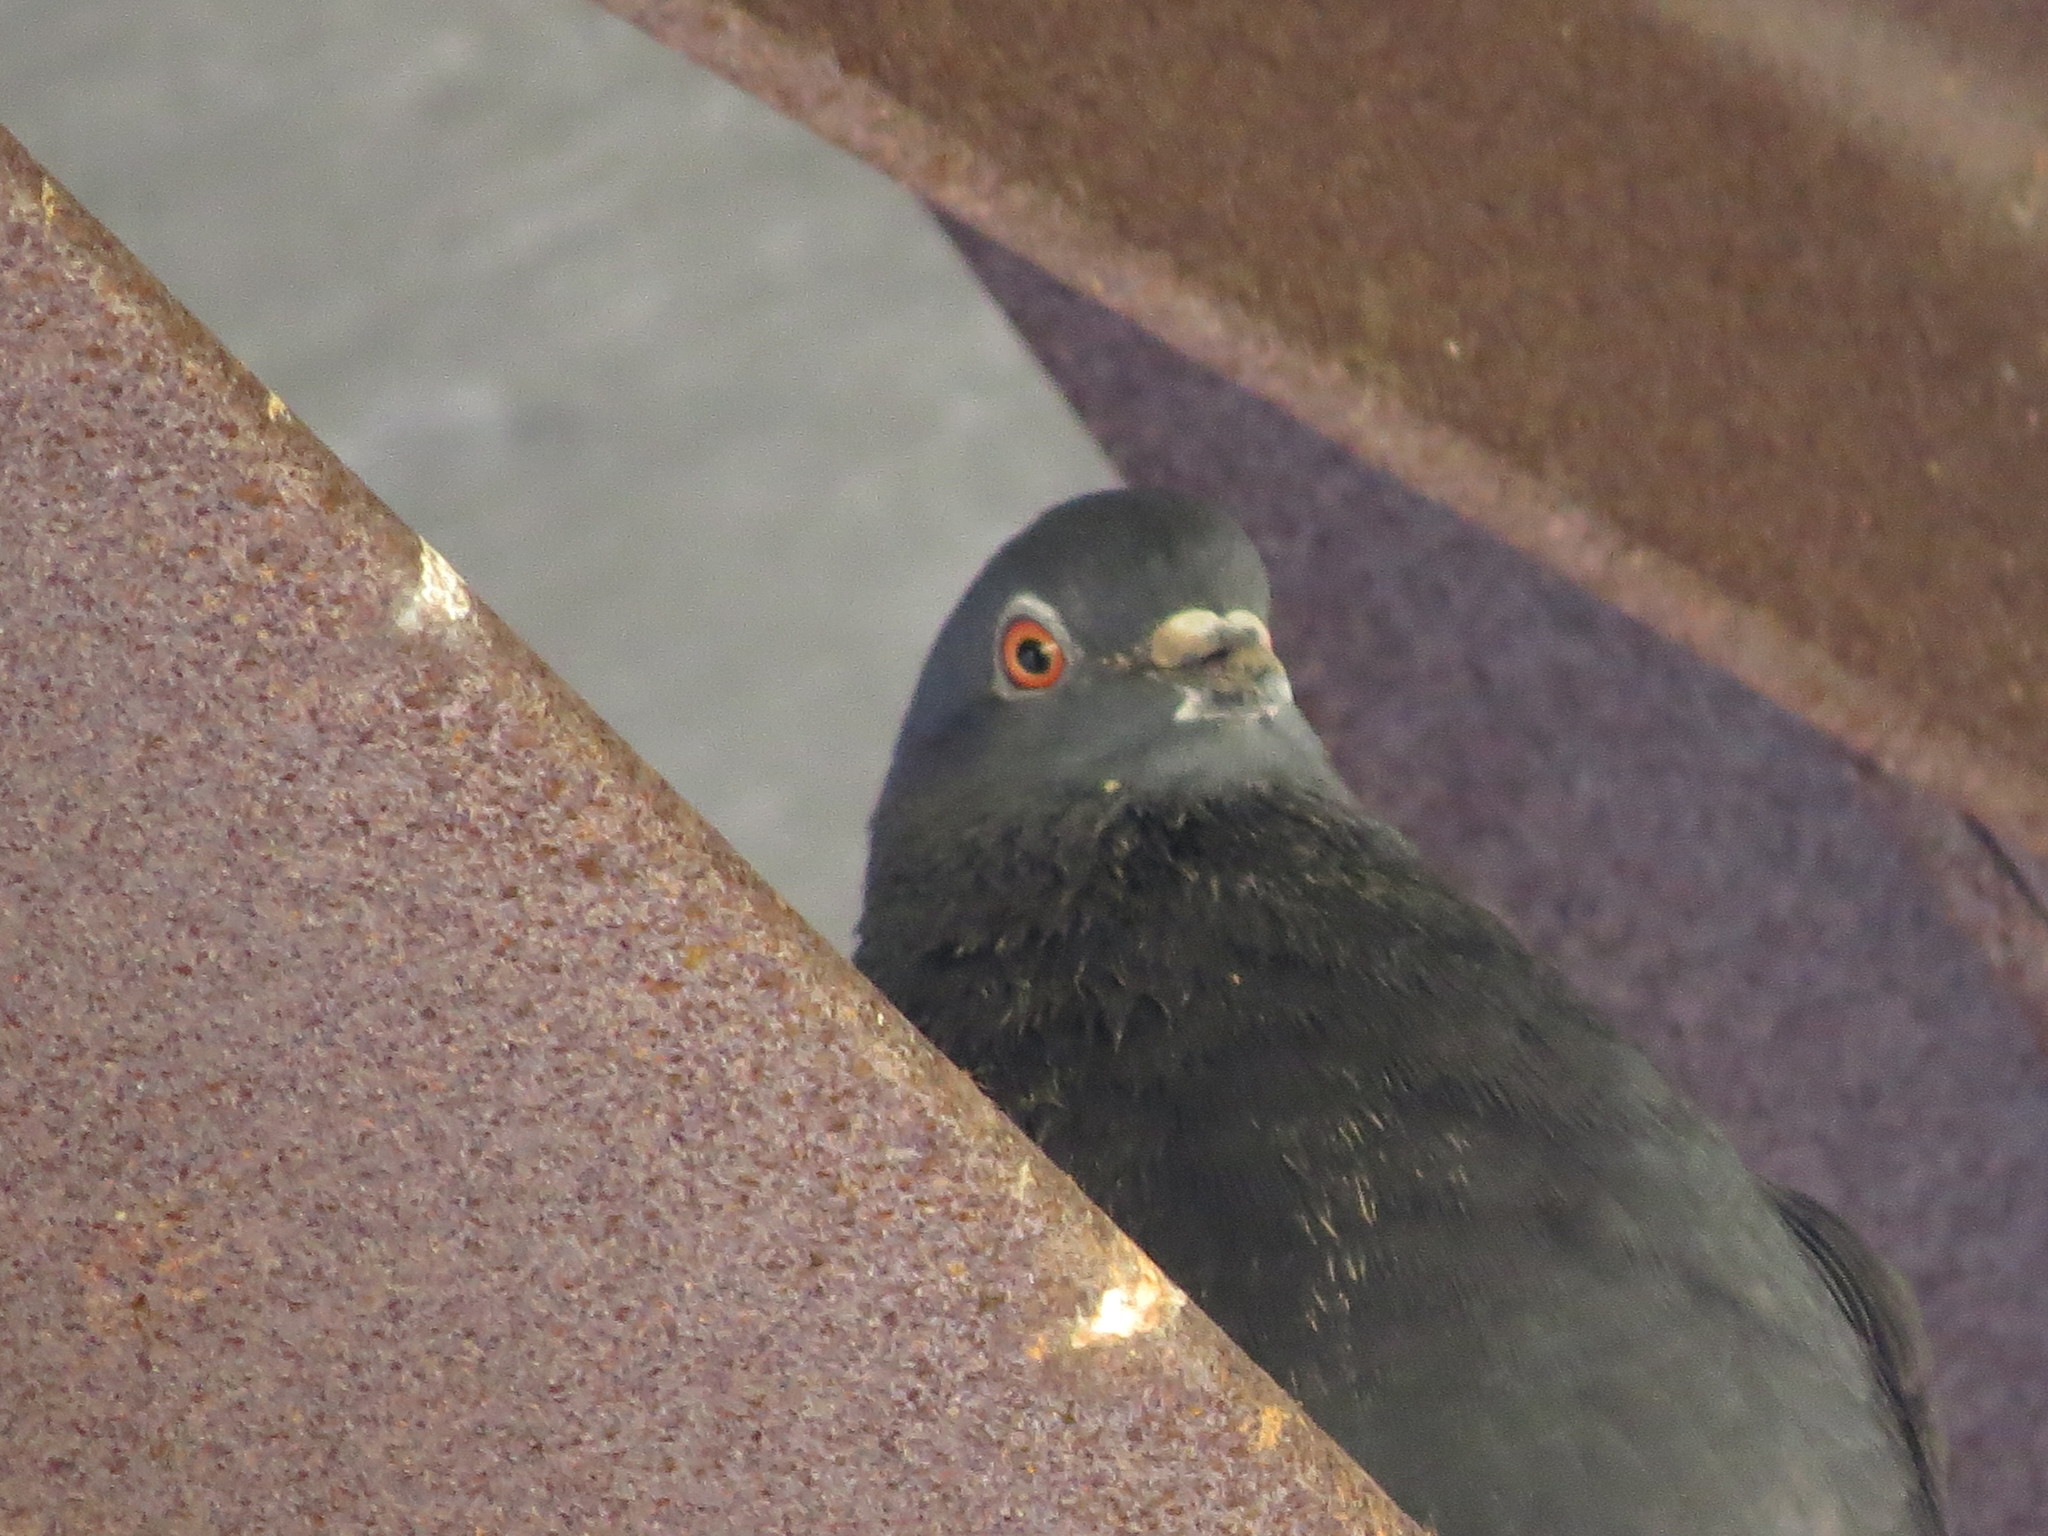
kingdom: Animalia
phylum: Chordata
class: Aves
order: Columbiformes
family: Columbidae
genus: Columba
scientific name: Columba livia
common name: Rock pigeon
